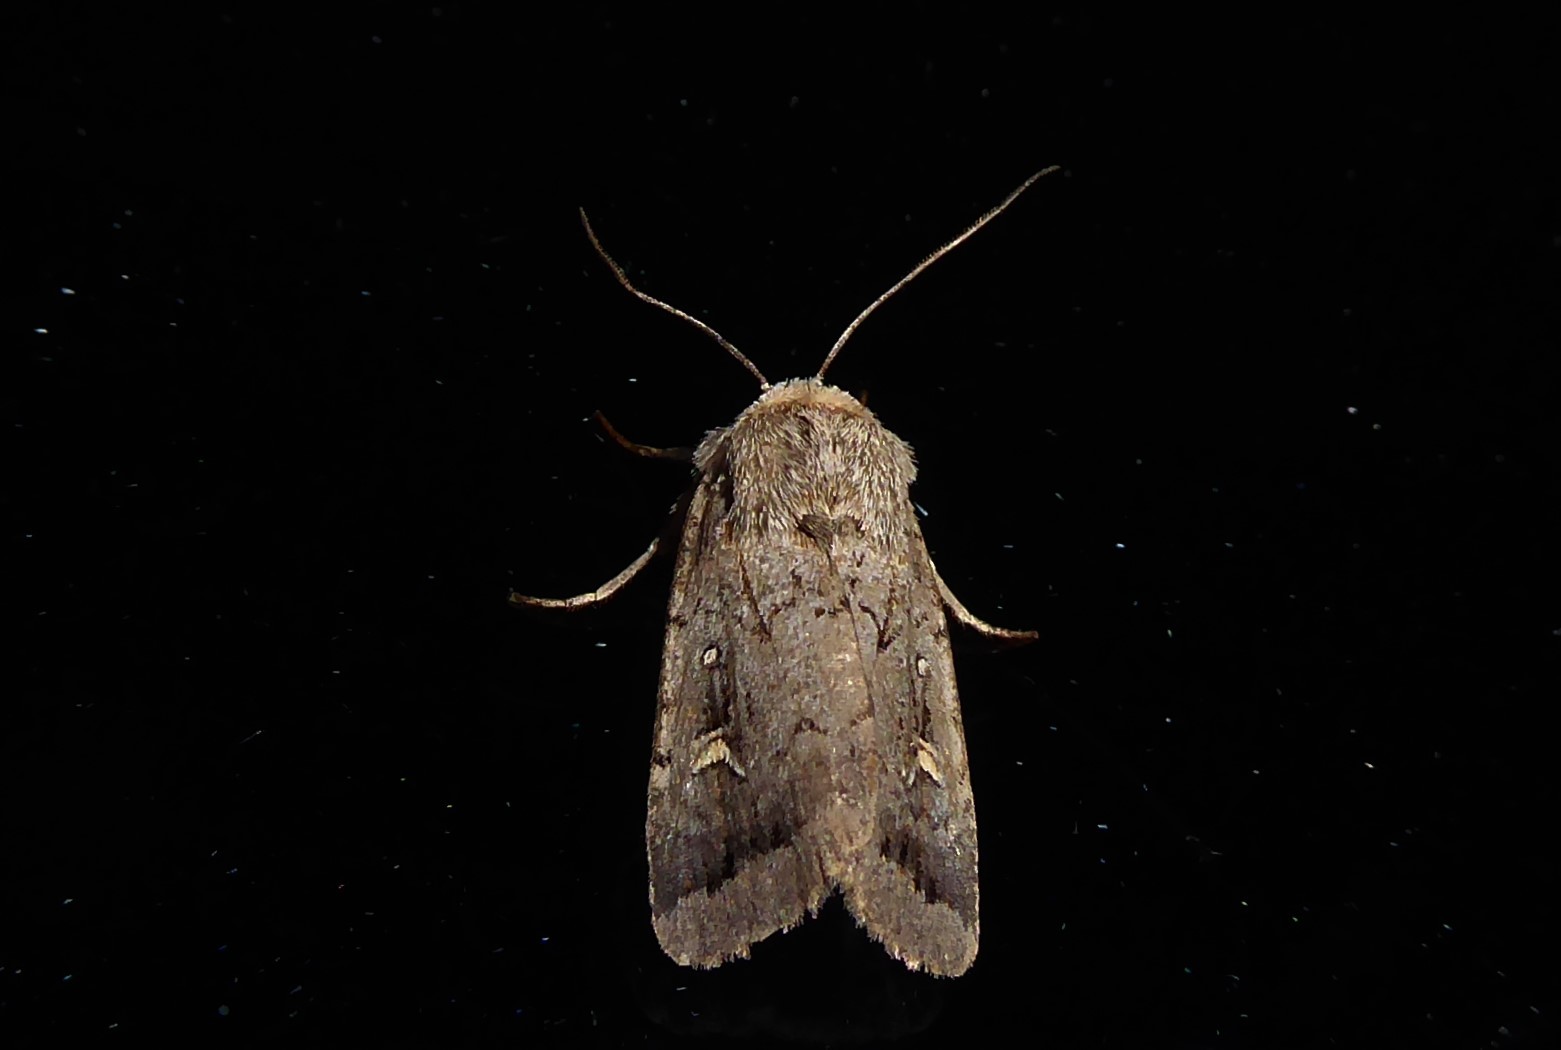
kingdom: Animalia
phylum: Arthropoda
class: Insecta
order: Lepidoptera
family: Noctuidae
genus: Proteuxoa
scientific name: Proteuxoa tetronycha
